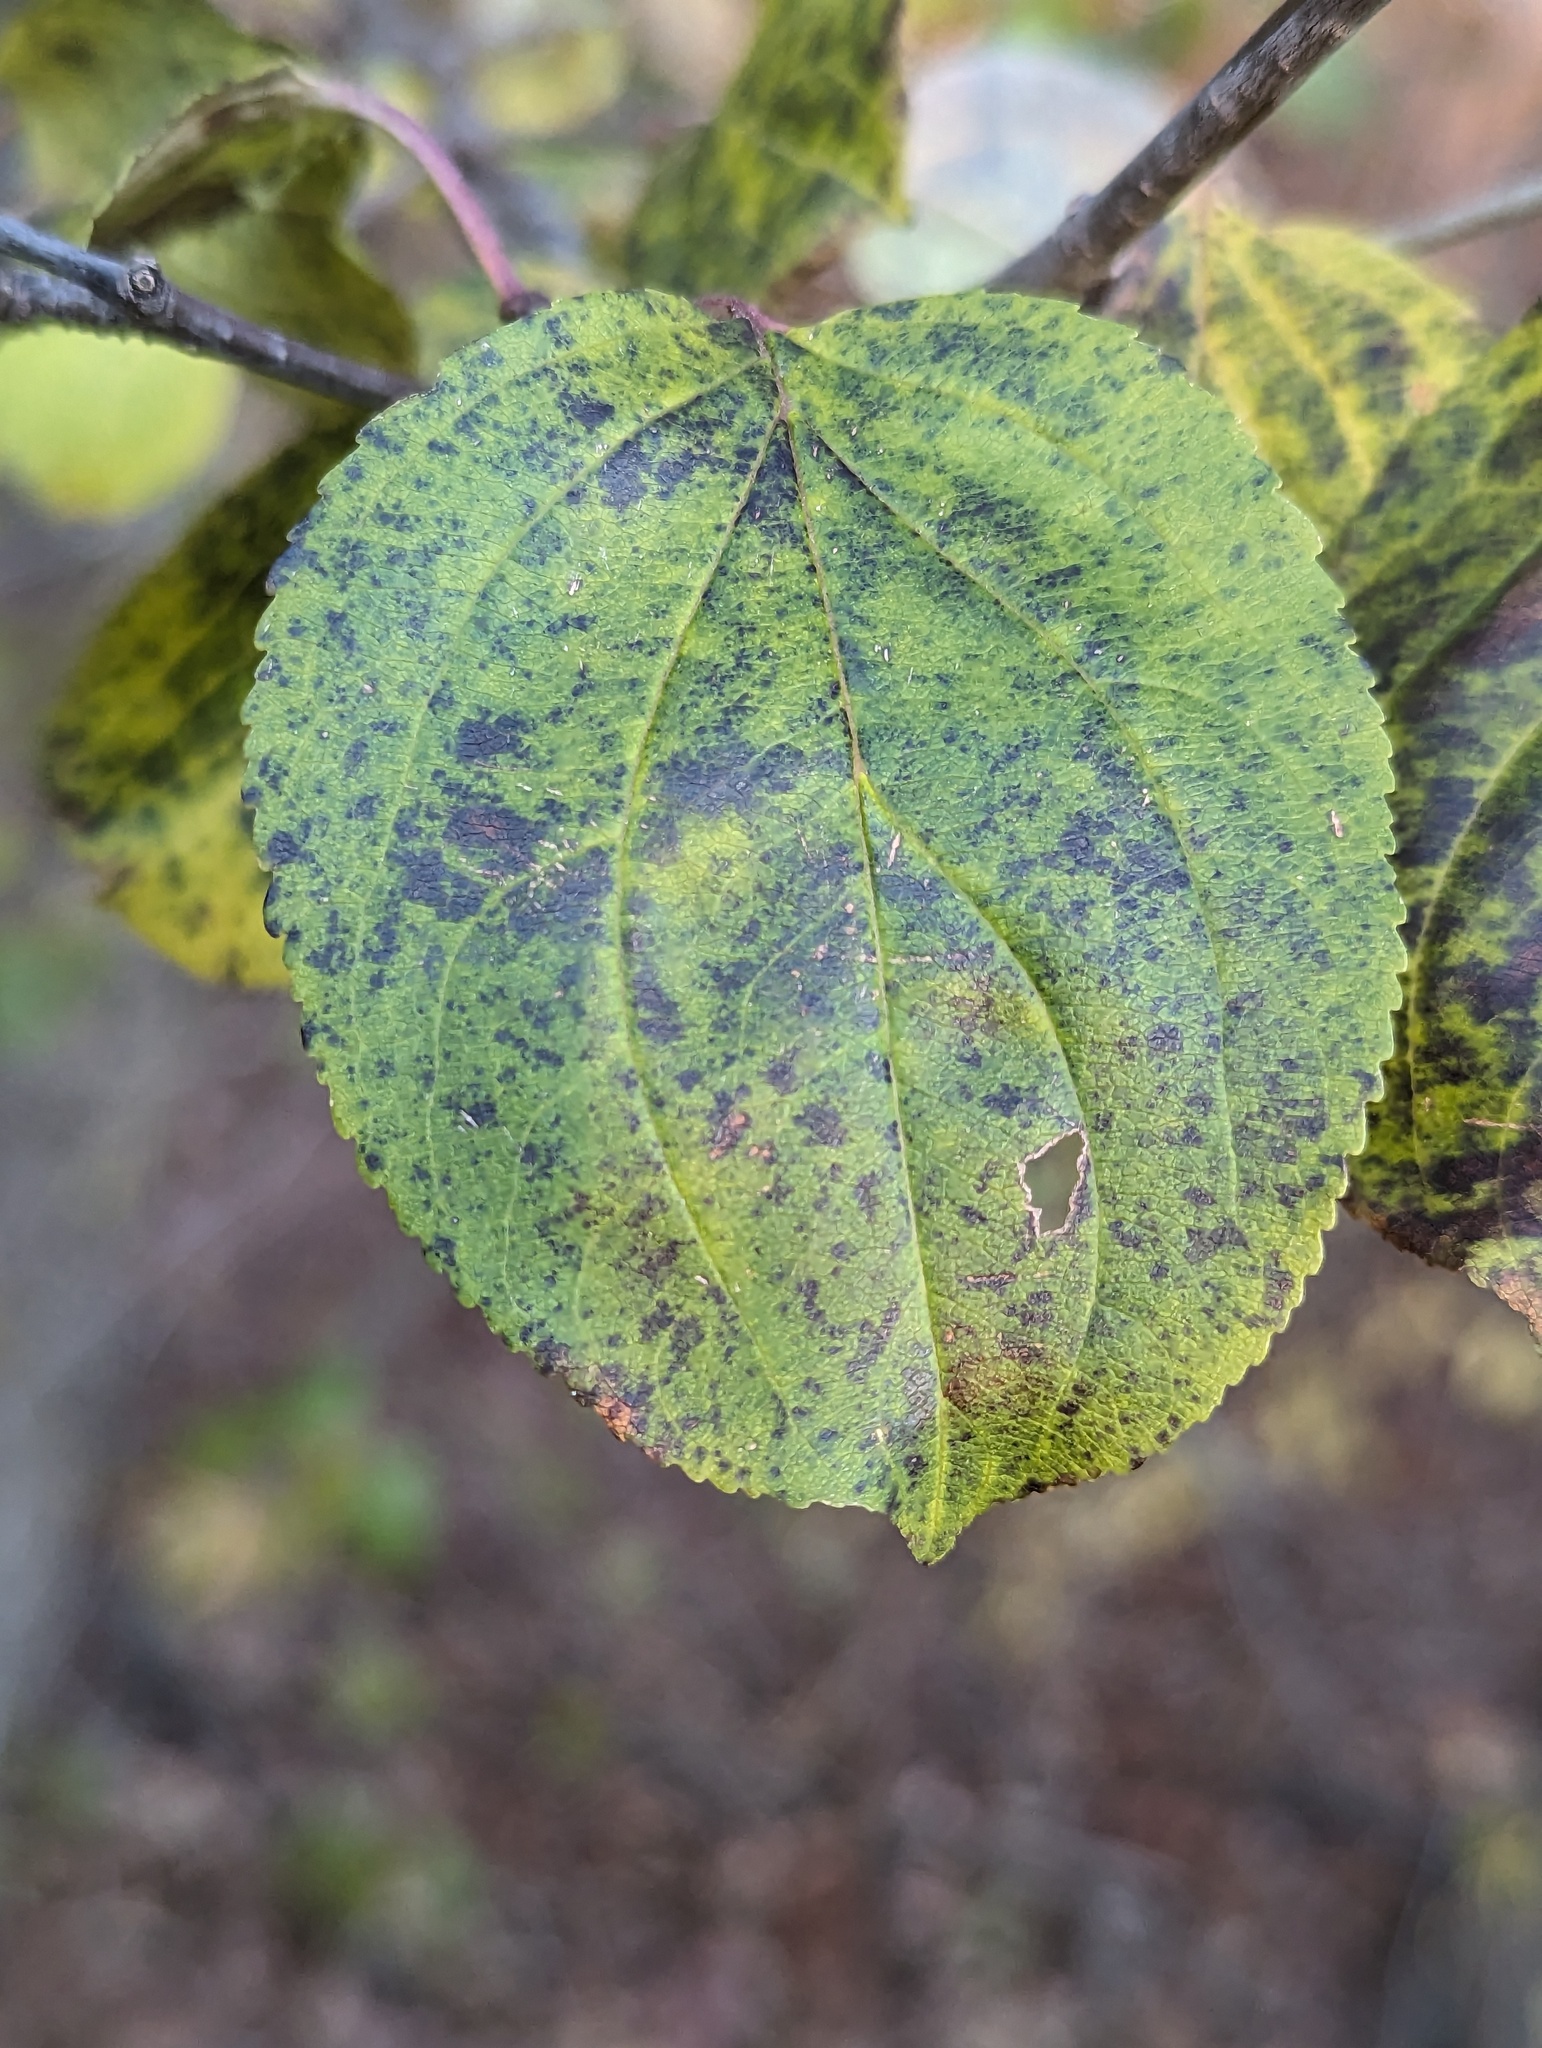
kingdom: Plantae
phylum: Tracheophyta
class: Magnoliopsida
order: Rosales
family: Rhamnaceae
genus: Rhamnus
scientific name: Rhamnus cathartica
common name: Common buckthorn
